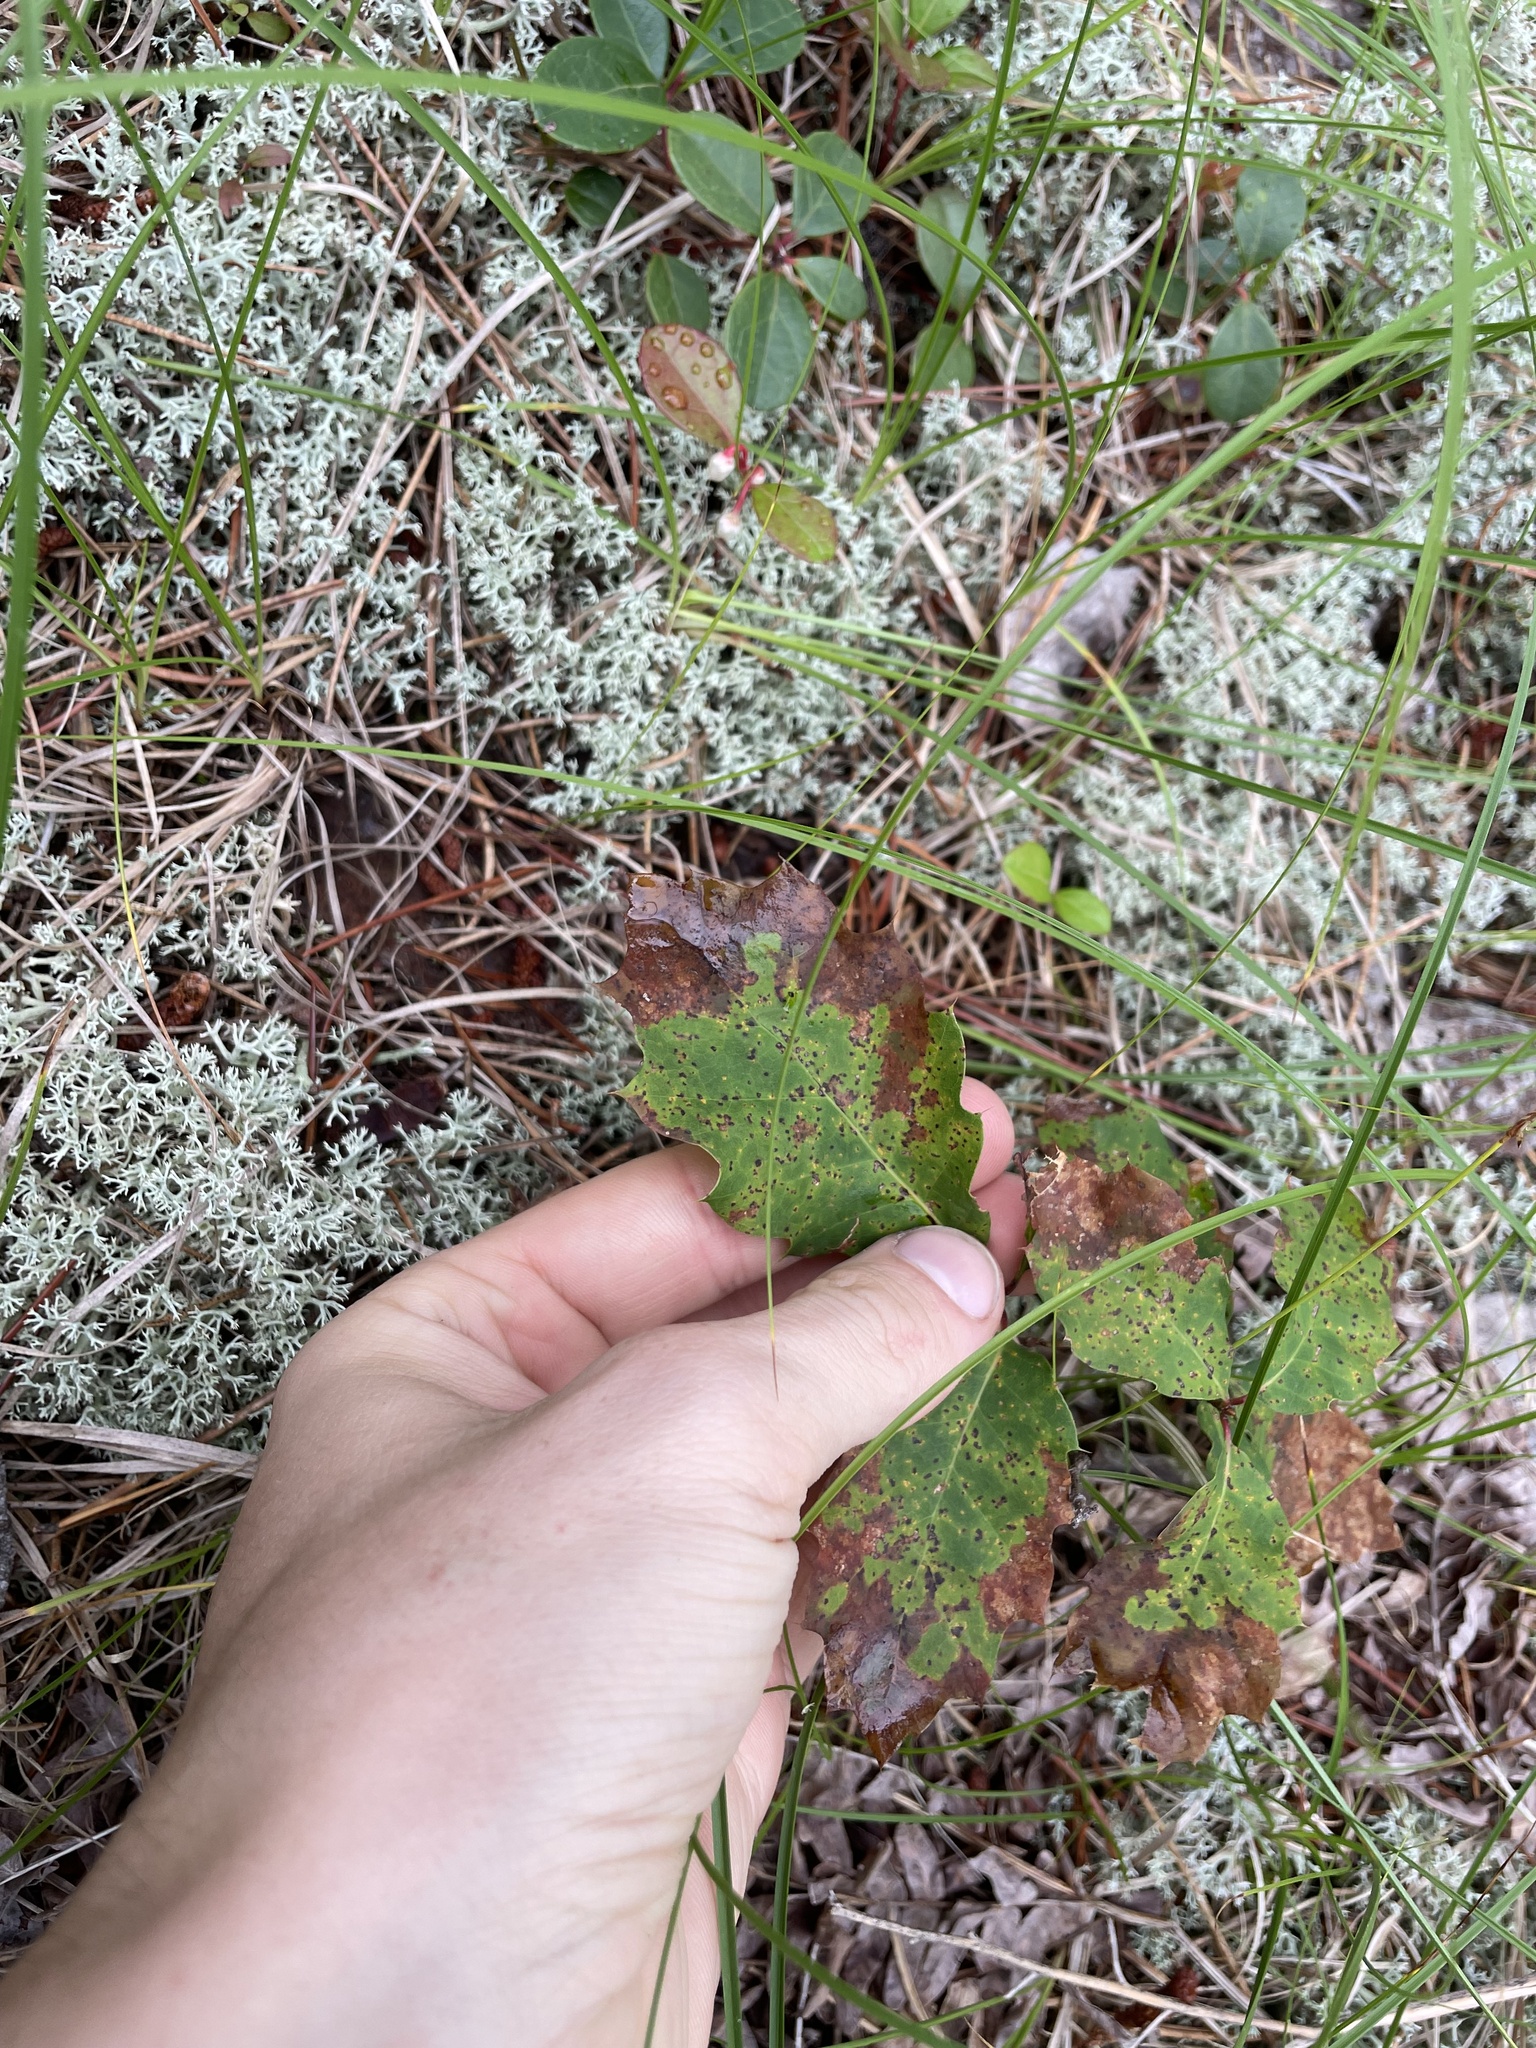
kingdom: Plantae
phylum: Tracheophyta
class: Magnoliopsida
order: Fagales
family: Fagaceae
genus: Quercus
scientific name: Quercus rubra
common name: Red oak
